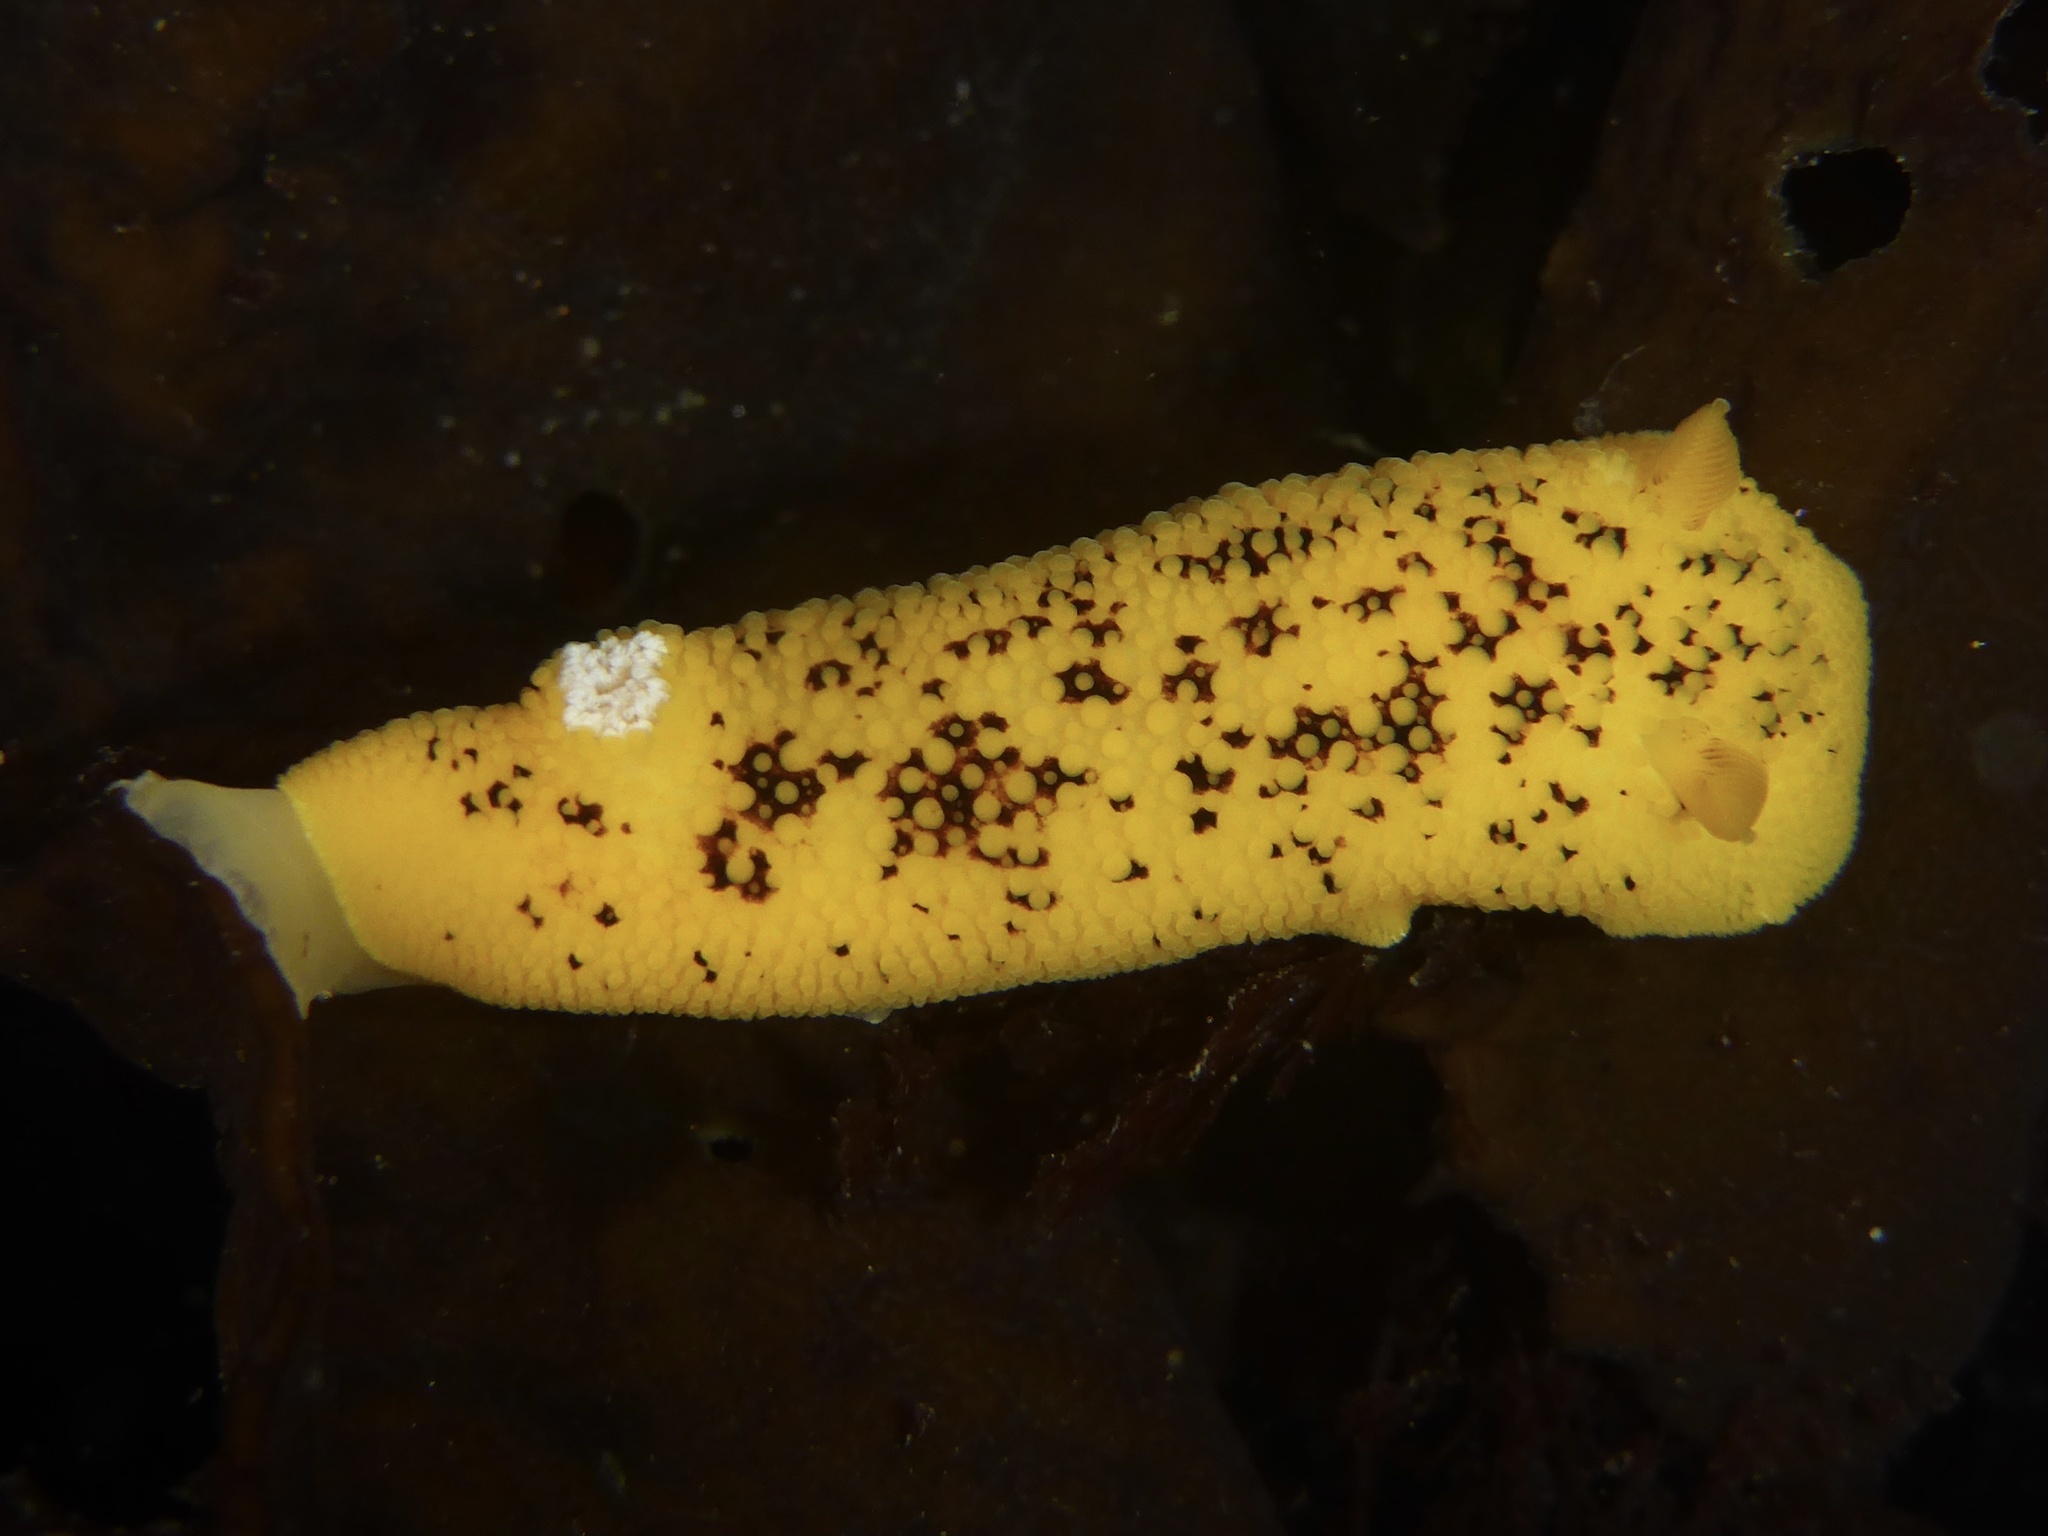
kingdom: Animalia
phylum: Mollusca
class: Gastropoda
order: Nudibranchia
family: Discodorididae
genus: Peltodoris
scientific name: Peltodoris nobilis
